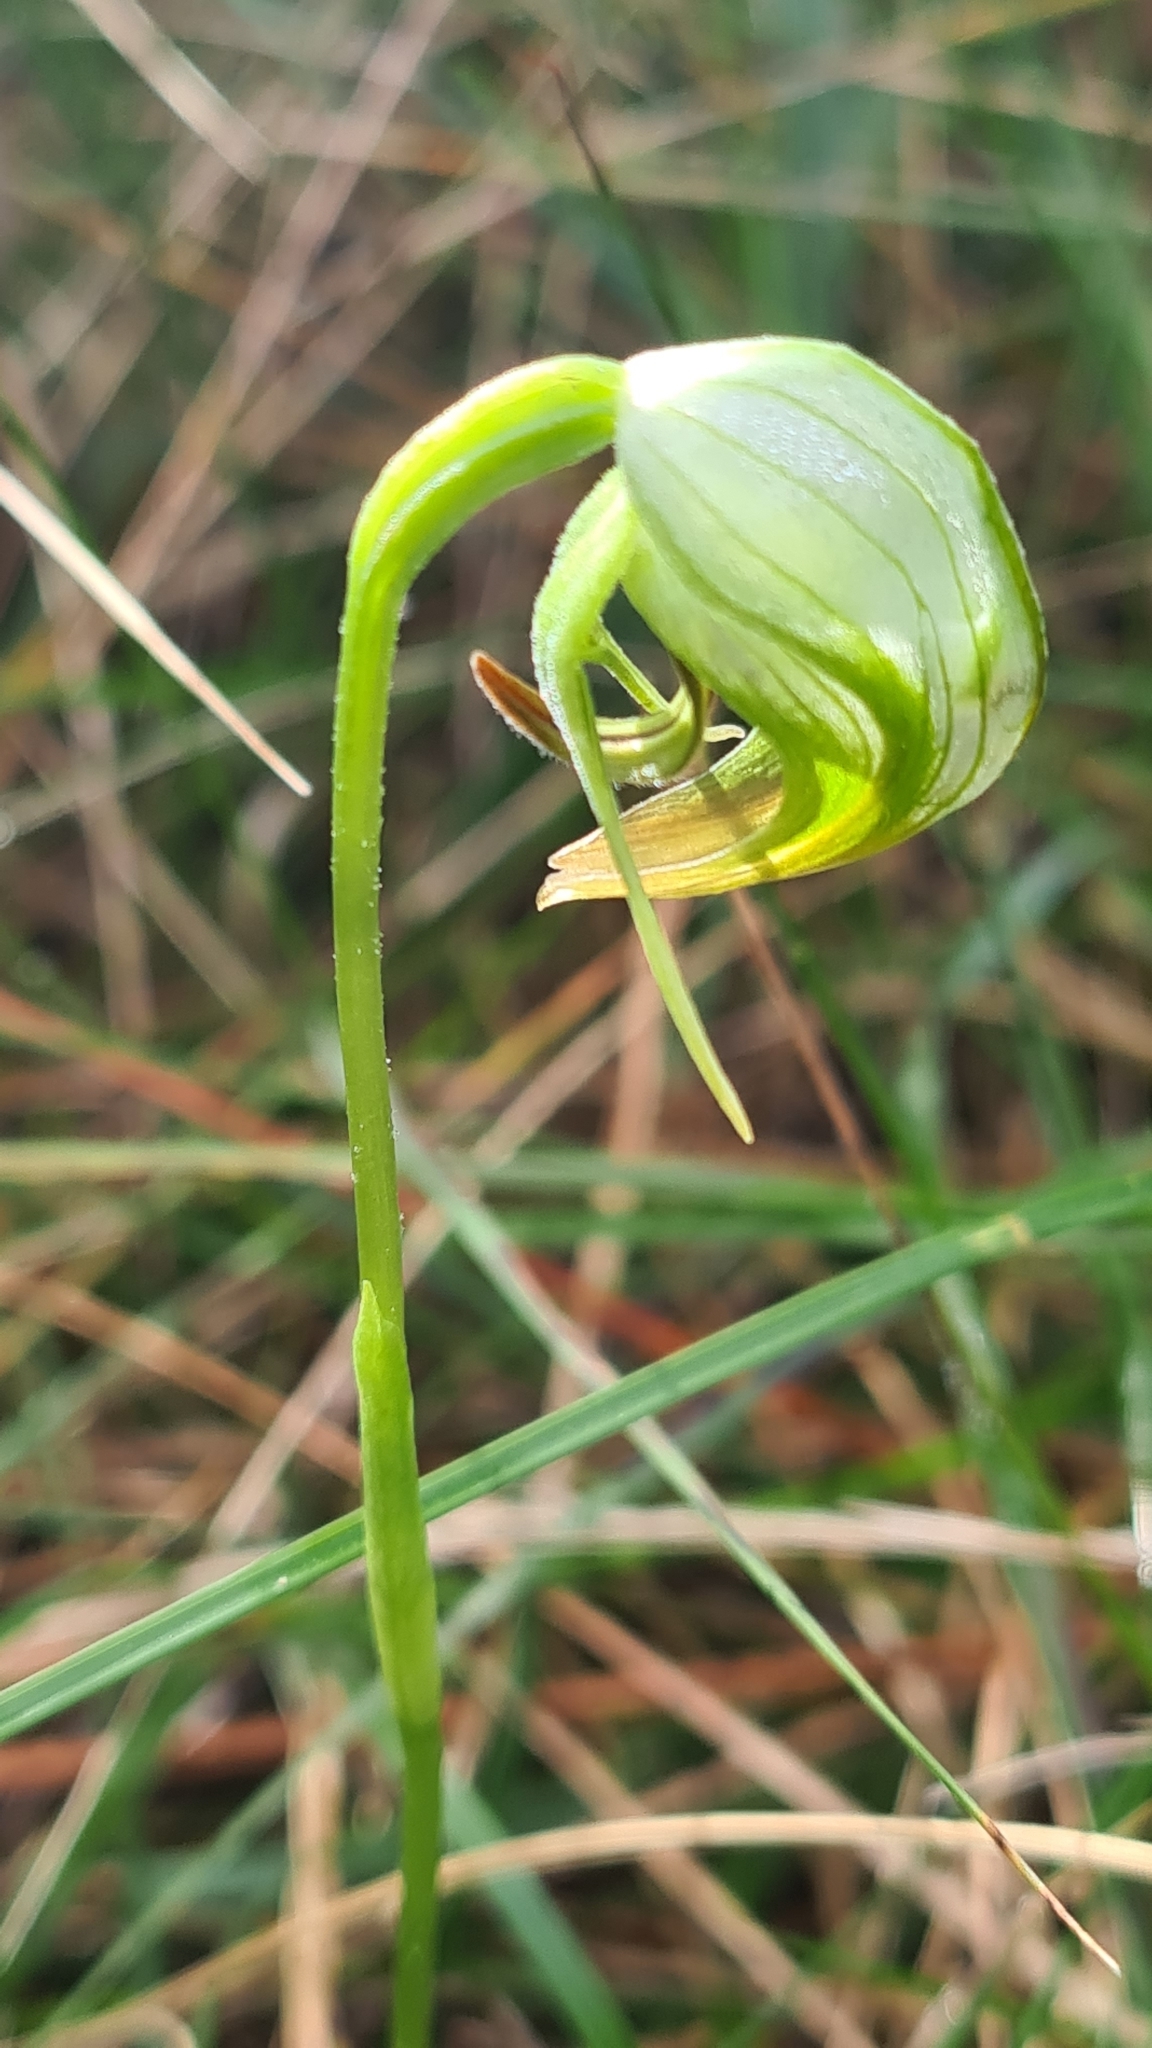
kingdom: Plantae
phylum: Tracheophyta
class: Liliopsida
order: Asparagales
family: Orchidaceae
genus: Pterostylis
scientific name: Pterostylis nutans
